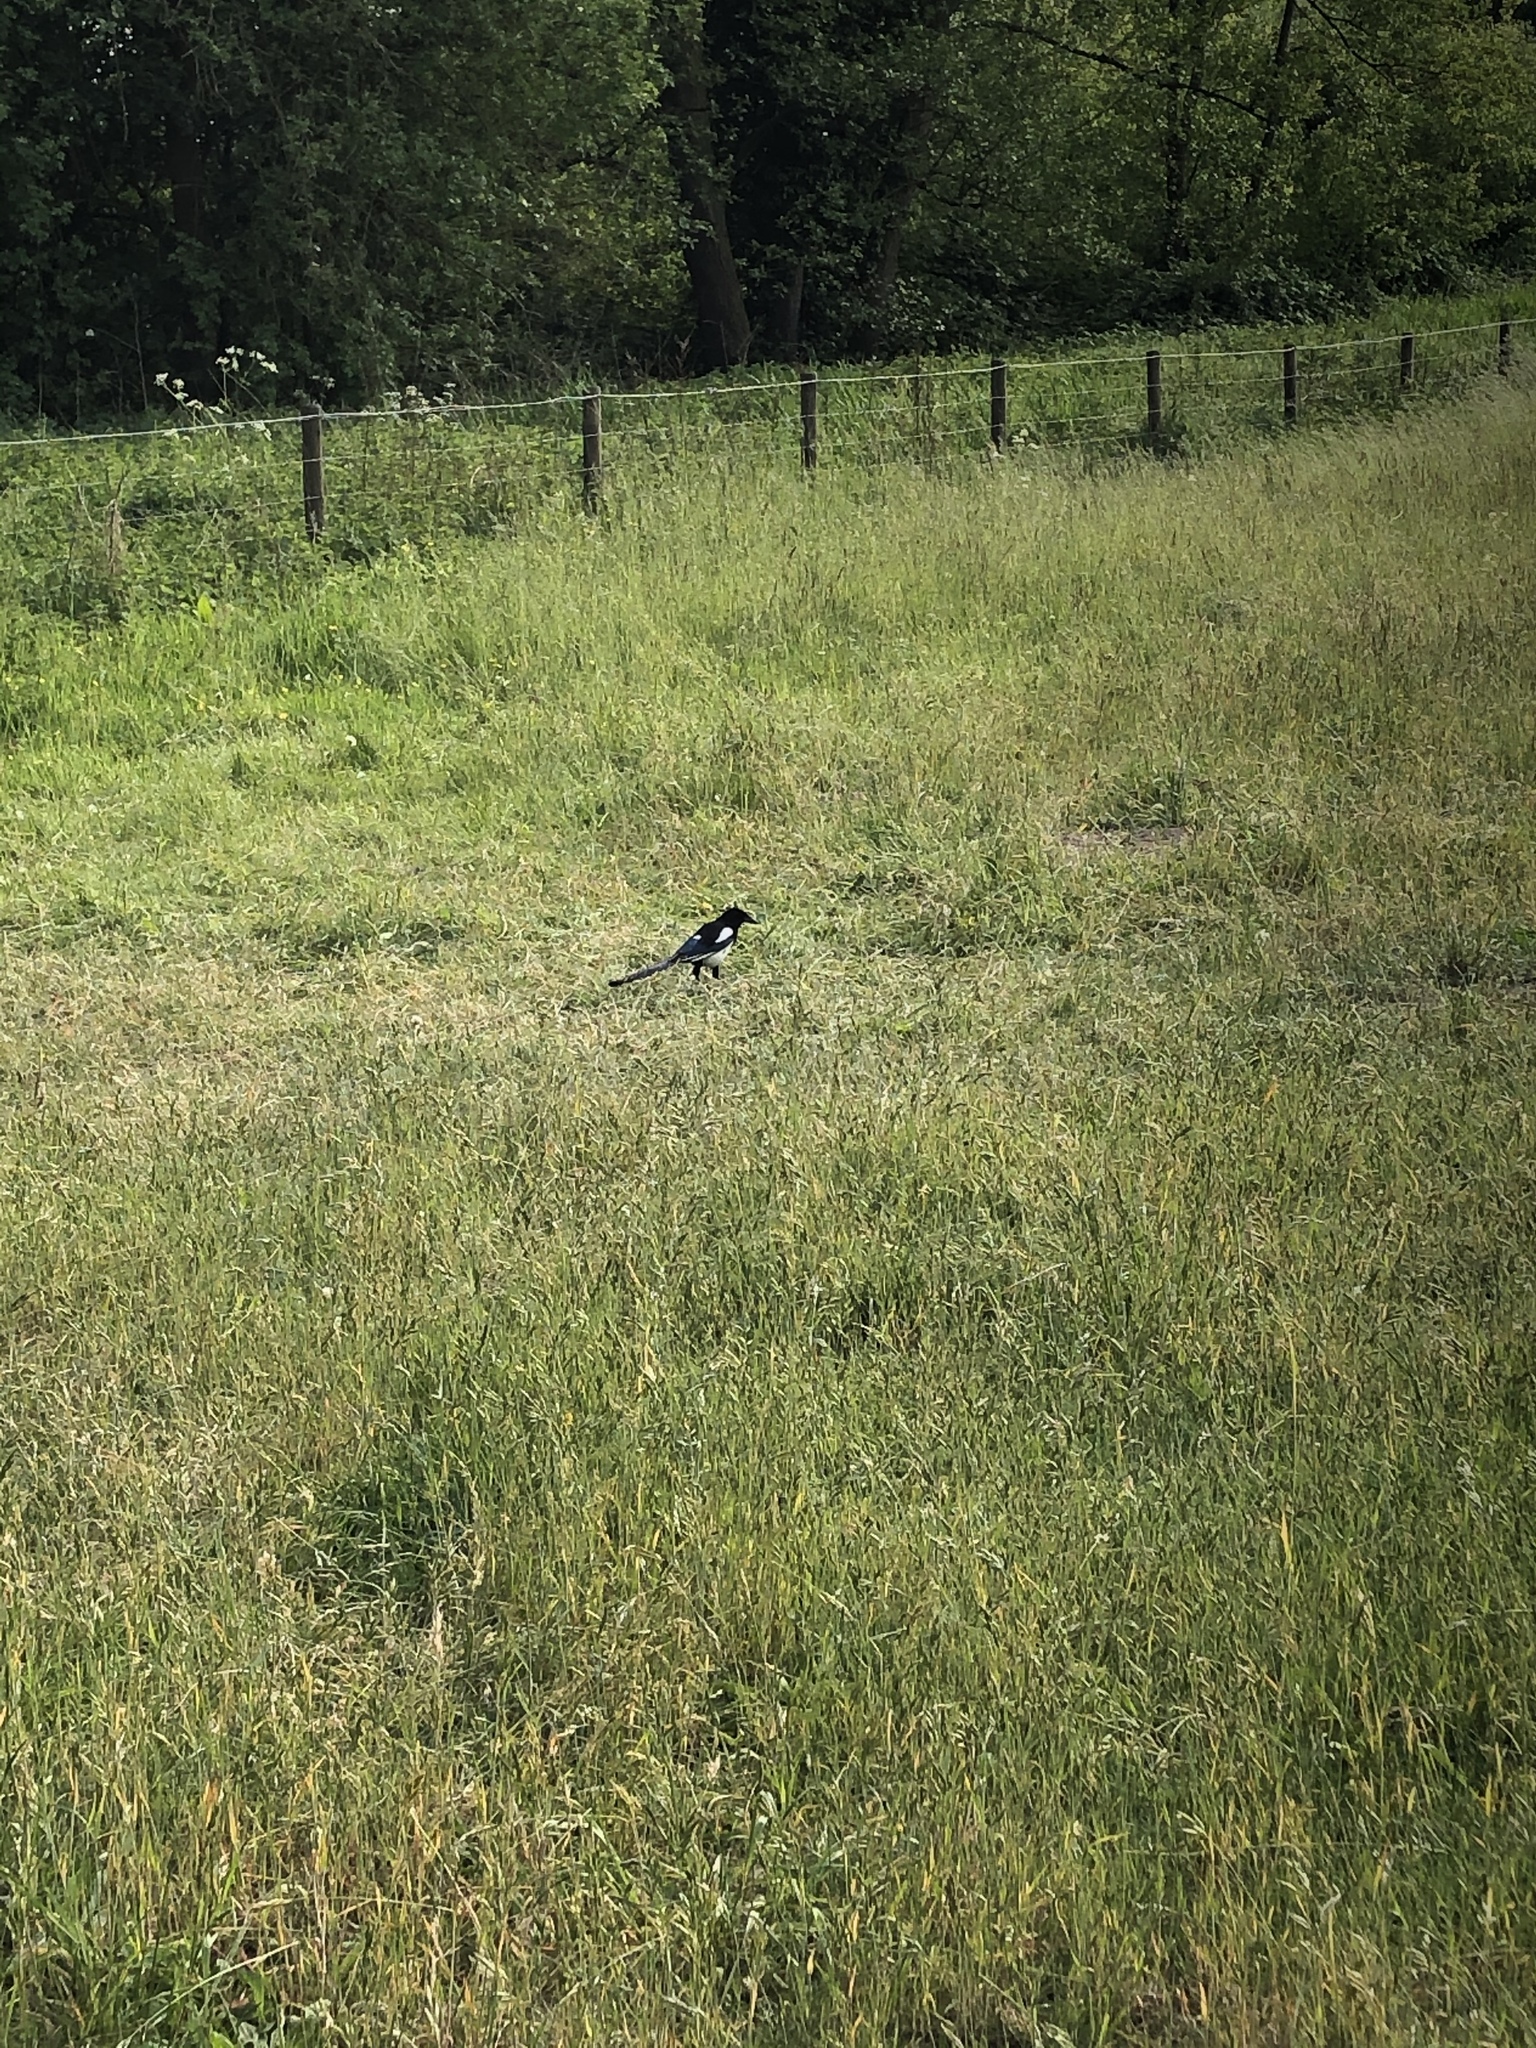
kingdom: Animalia
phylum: Chordata
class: Aves
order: Passeriformes
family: Corvidae
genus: Pica
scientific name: Pica pica
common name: Eurasian magpie
